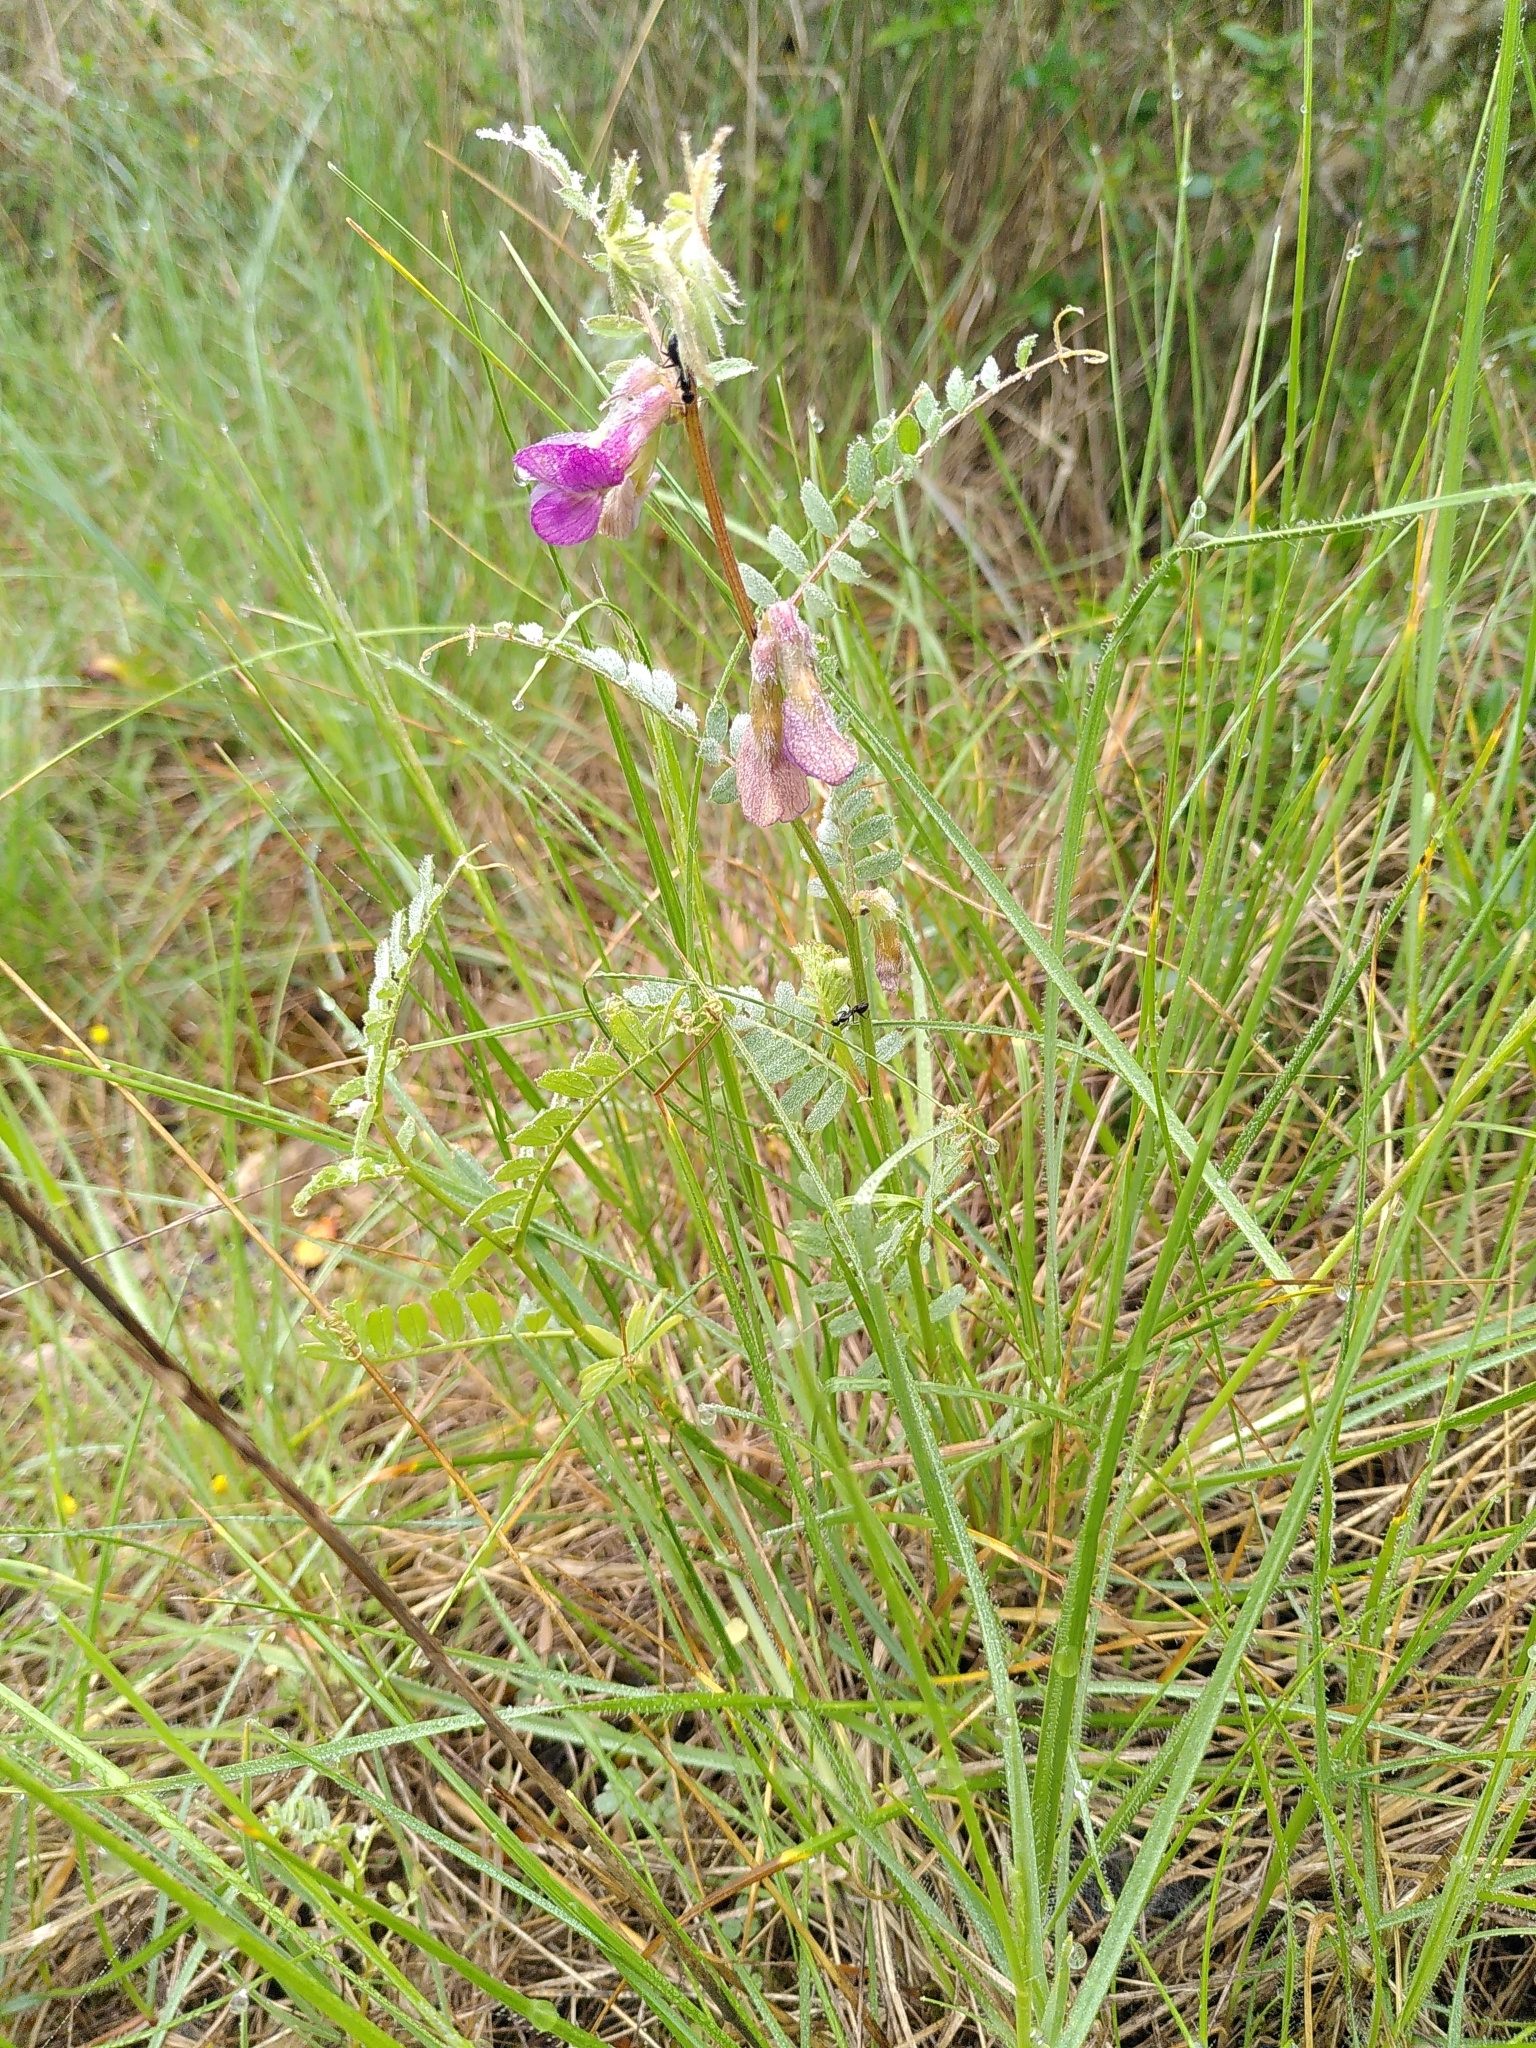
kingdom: Plantae
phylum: Tracheophyta
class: Magnoliopsida
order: Fabales
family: Fabaceae
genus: Vicia
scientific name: Vicia pannonica
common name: Hungarian vetch
